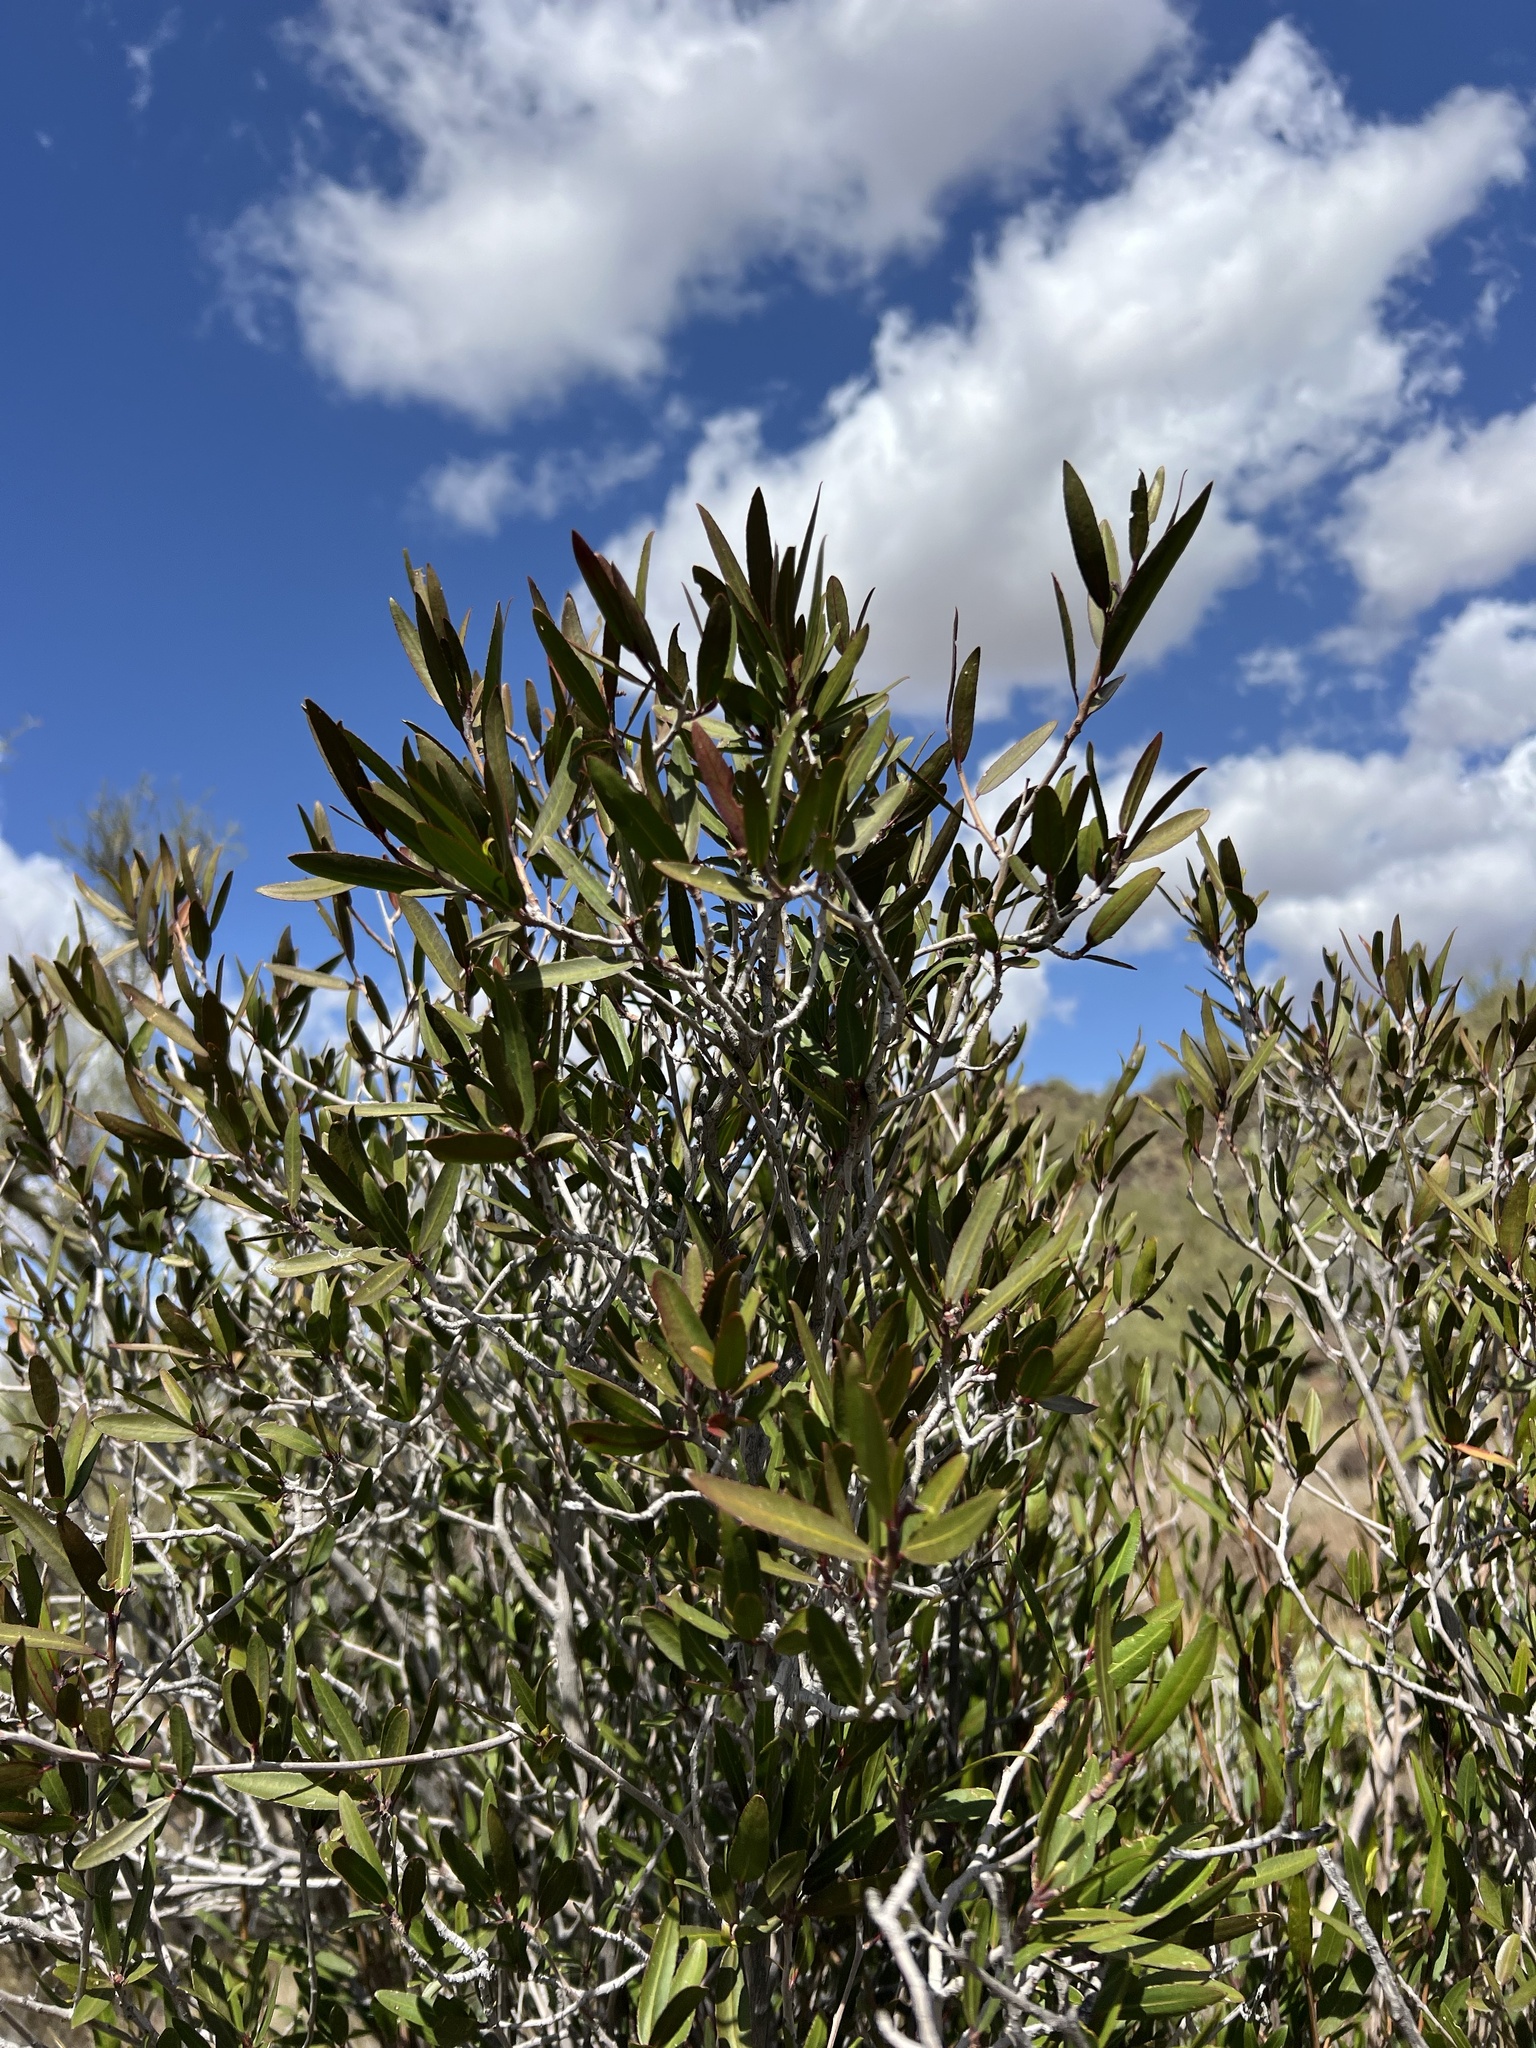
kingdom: Plantae
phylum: Tracheophyta
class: Magnoliopsida
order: Malpighiales
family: Euphorbiaceae
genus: Pleradenophora
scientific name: Pleradenophora bilocularis
